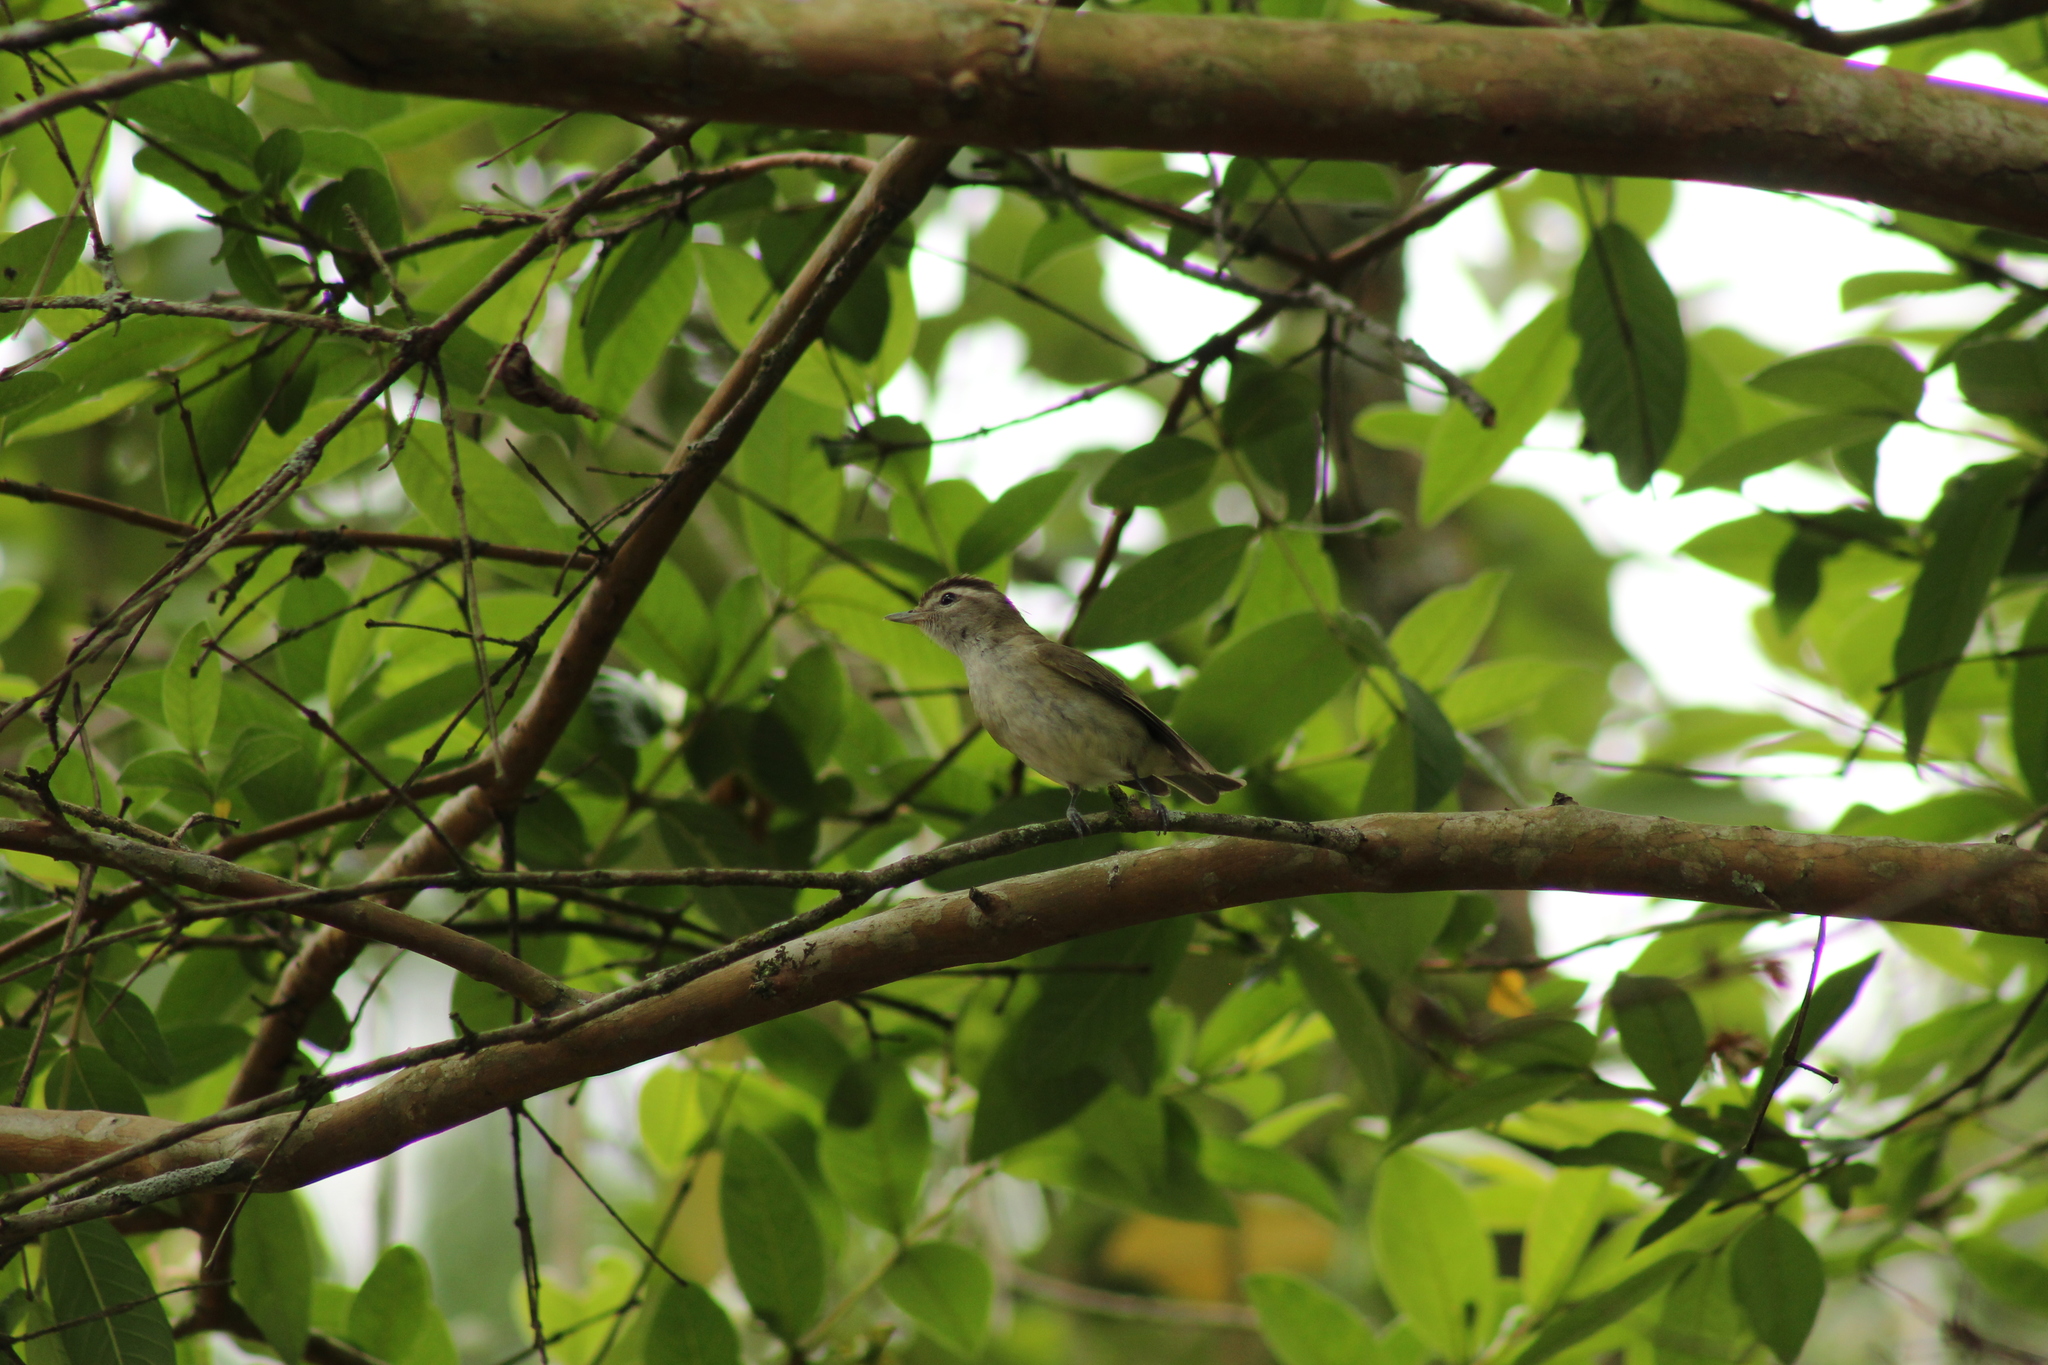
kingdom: Animalia
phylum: Chordata
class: Aves
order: Passeriformes
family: Vireonidae
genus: Vireo
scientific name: Vireo leucophrys
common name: Brown-capped vireo
